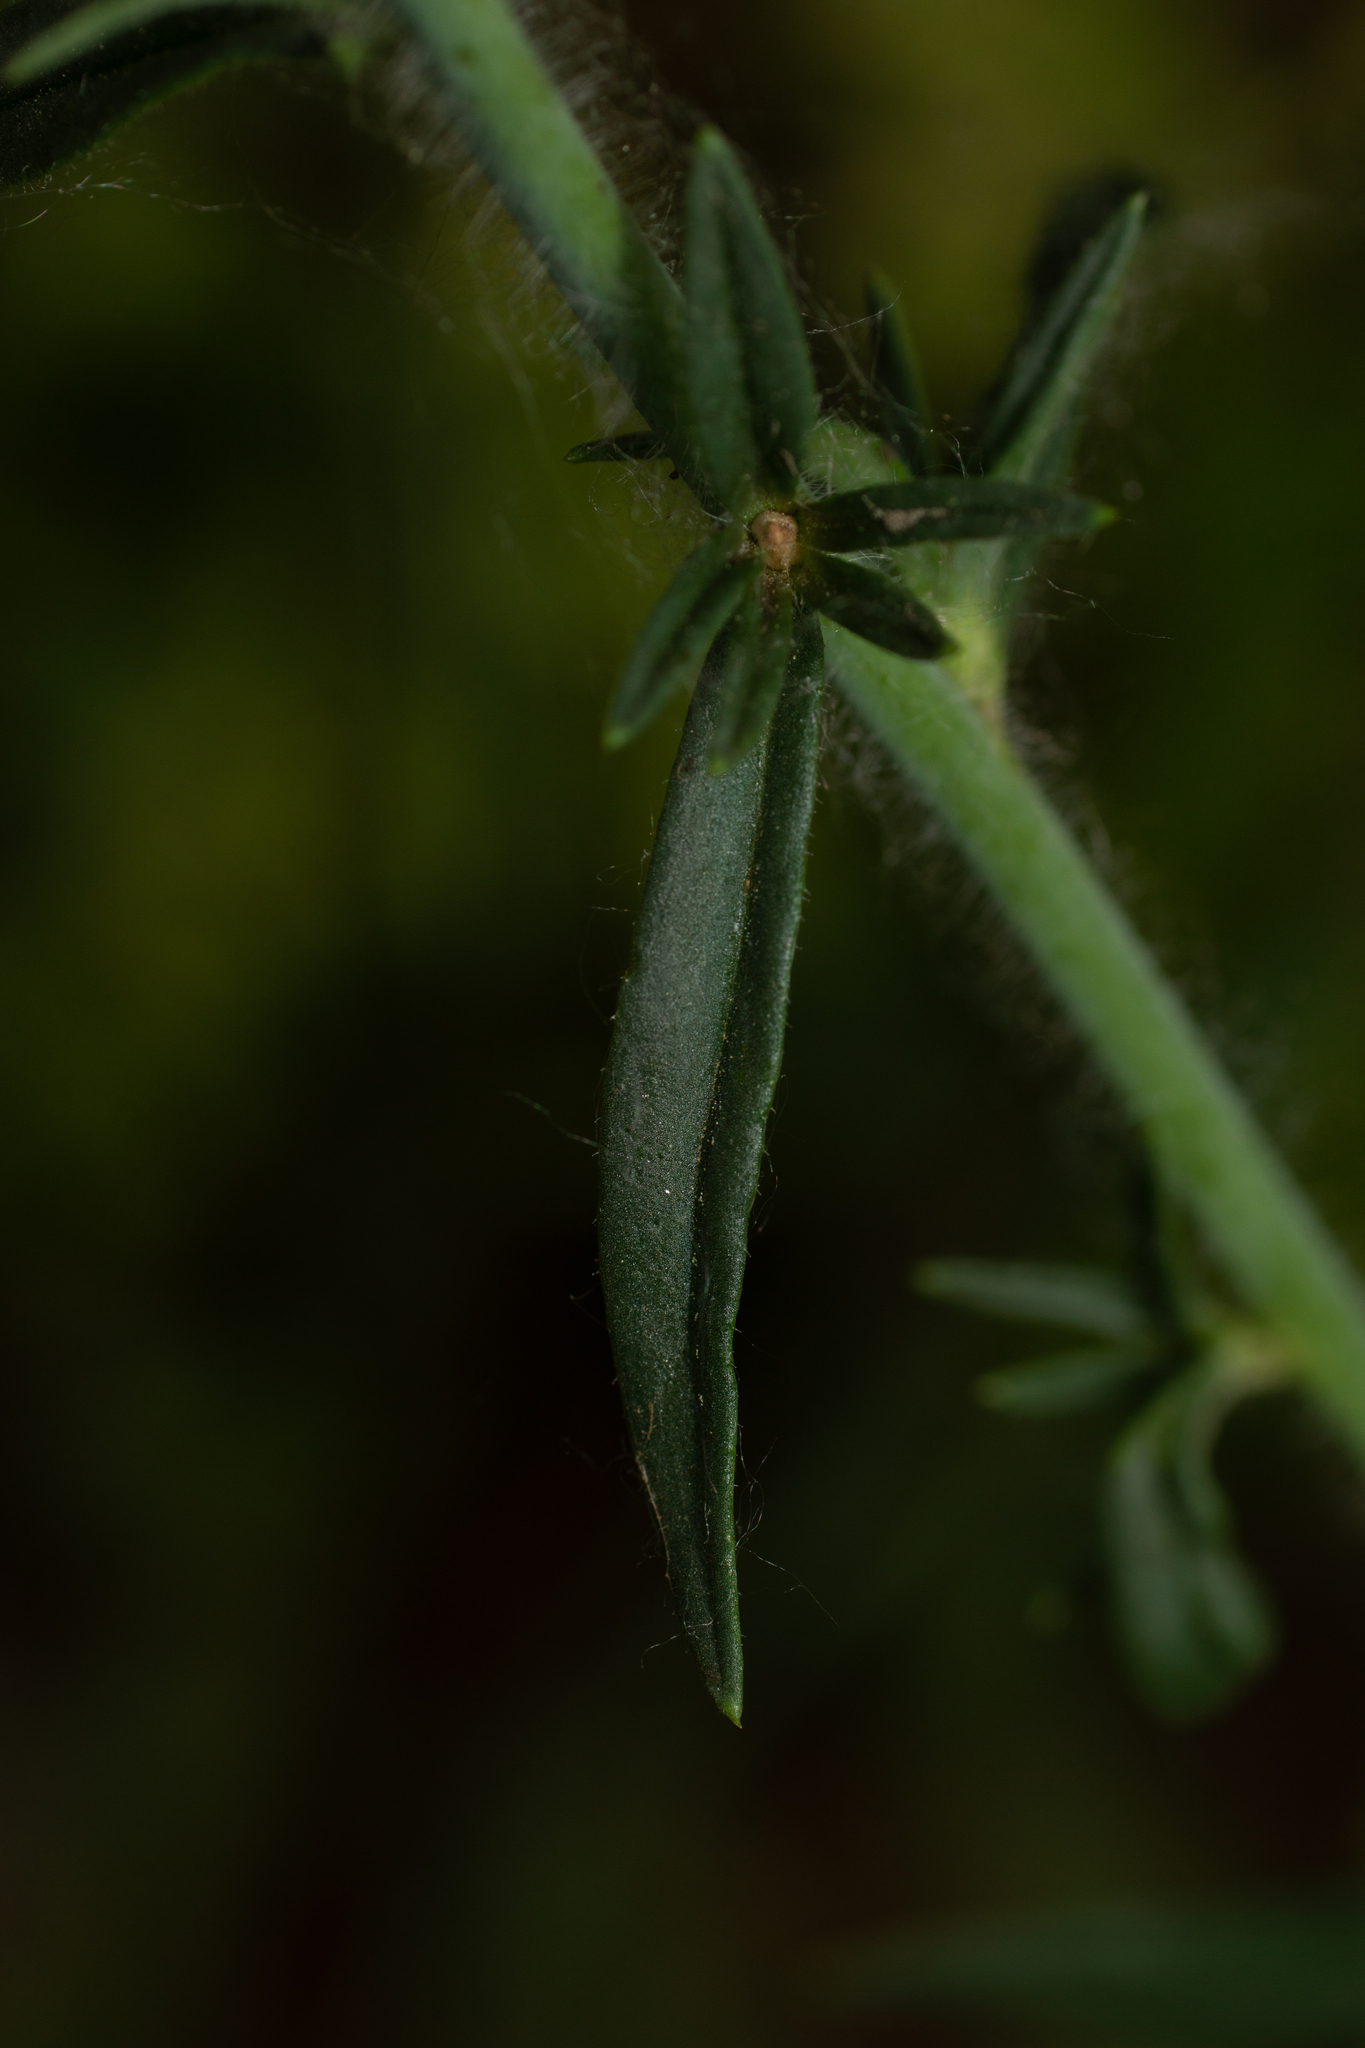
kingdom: Plantae
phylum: Tracheophyta
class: Magnoliopsida
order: Lamiales
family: Plantaginaceae
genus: Misopates
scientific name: Misopates orontium
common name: Weasel's-snout
